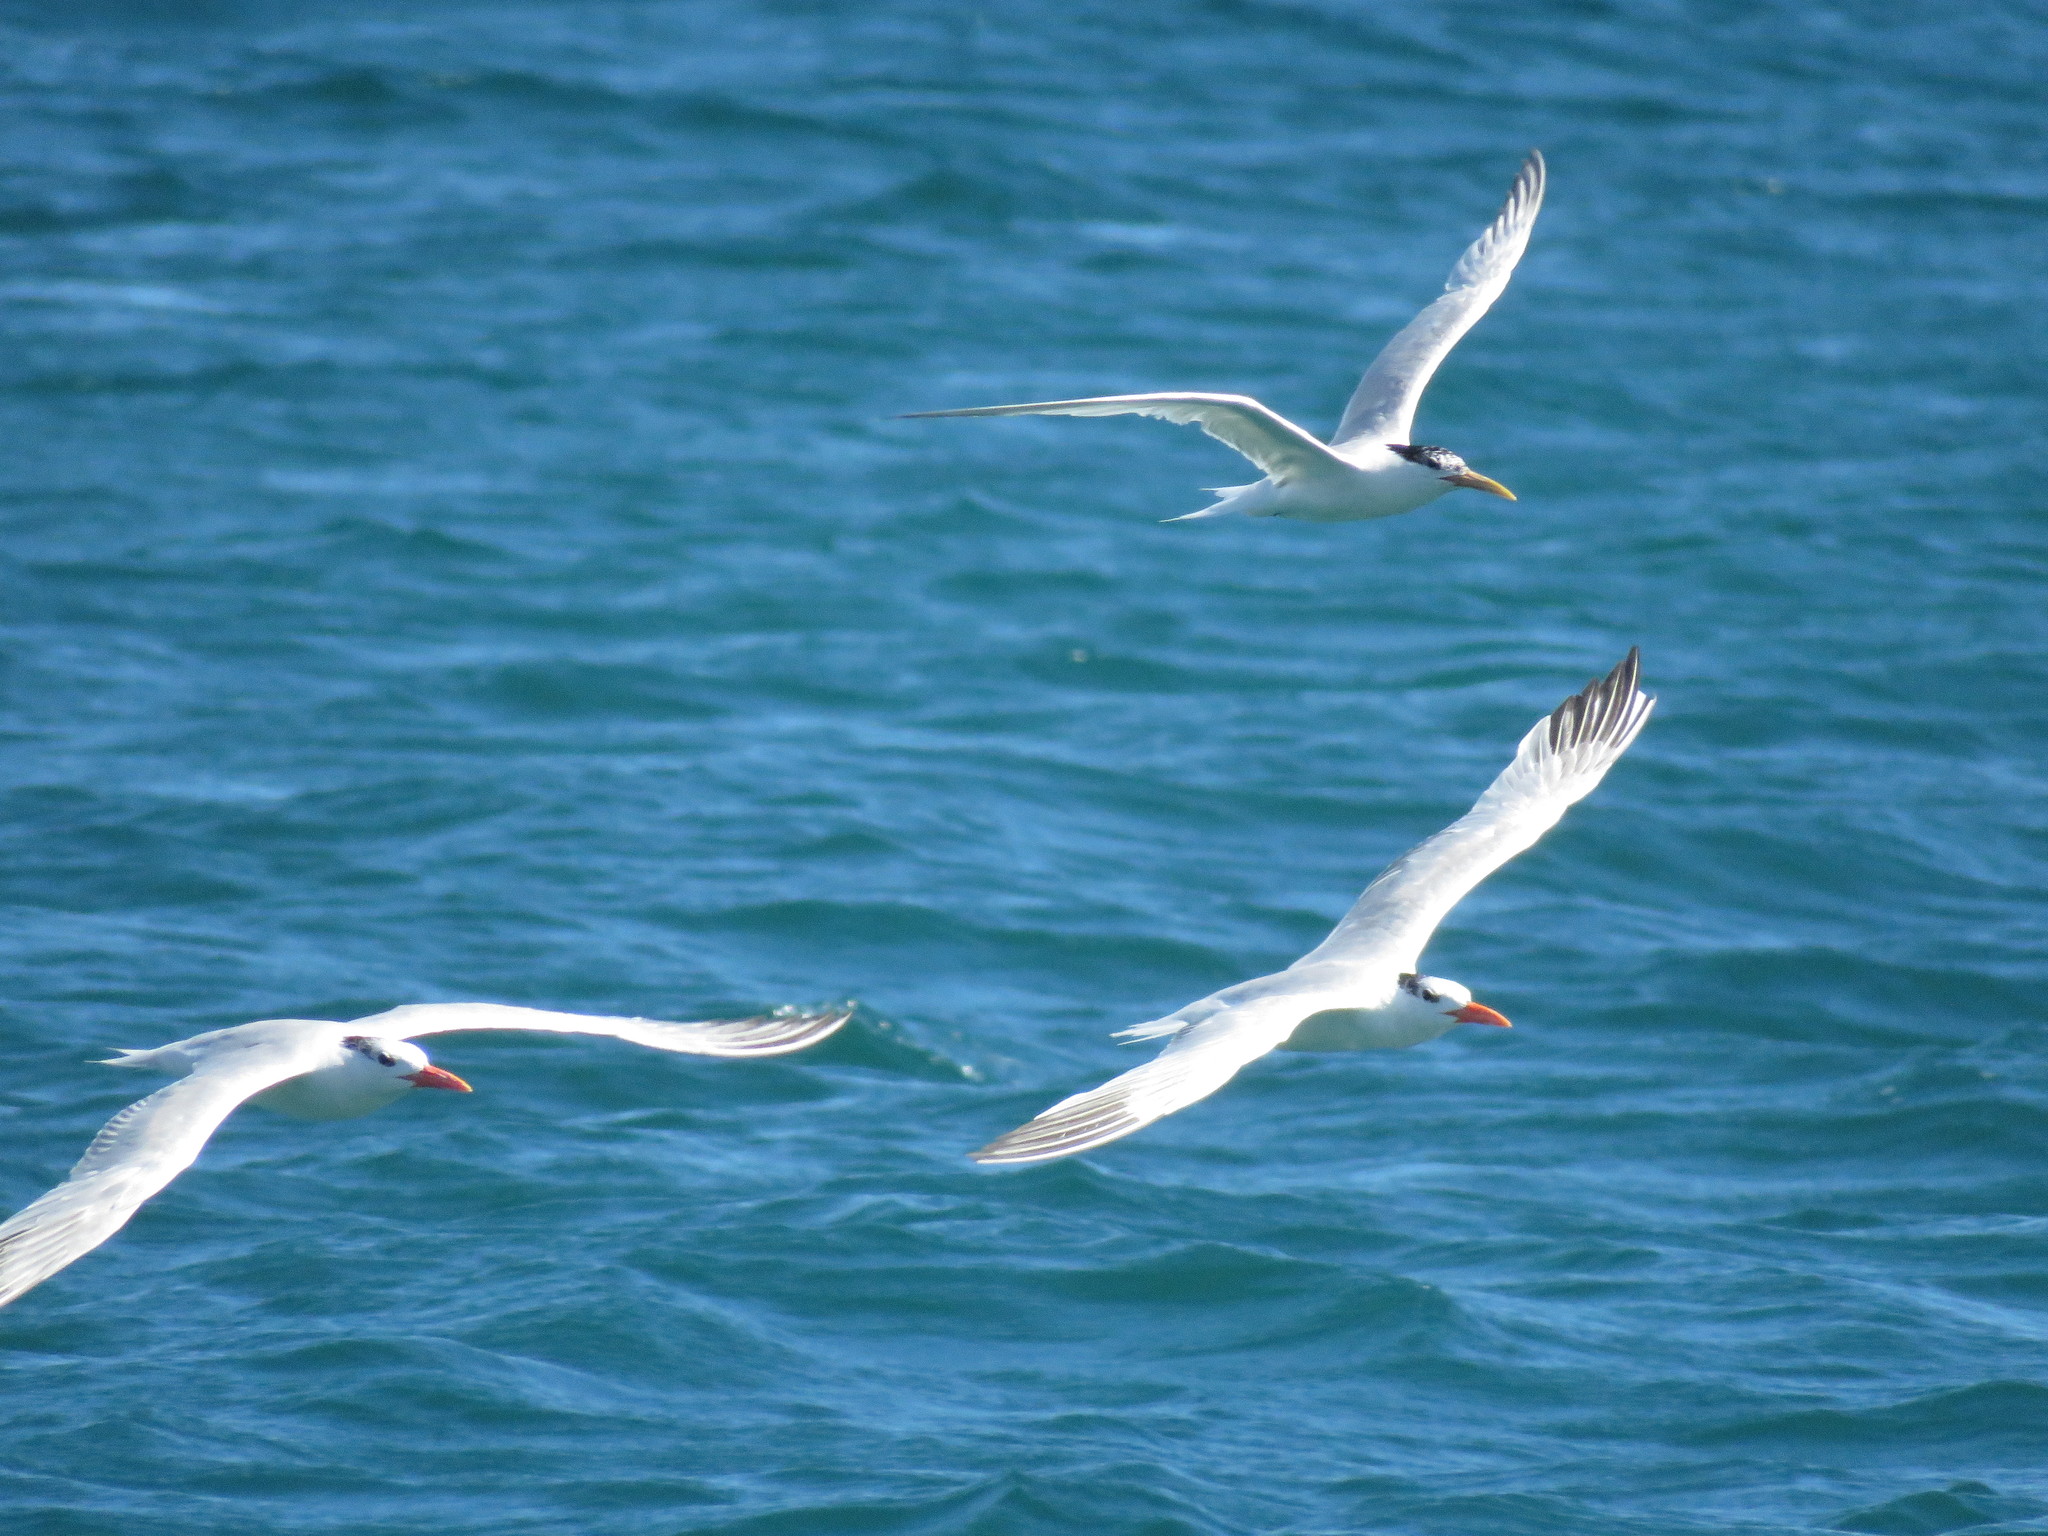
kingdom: Animalia
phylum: Chordata
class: Aves
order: Charadriiformes
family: Laridae
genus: Thalasseus
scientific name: Thalasseus sandvicensis
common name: Sandwich tern
